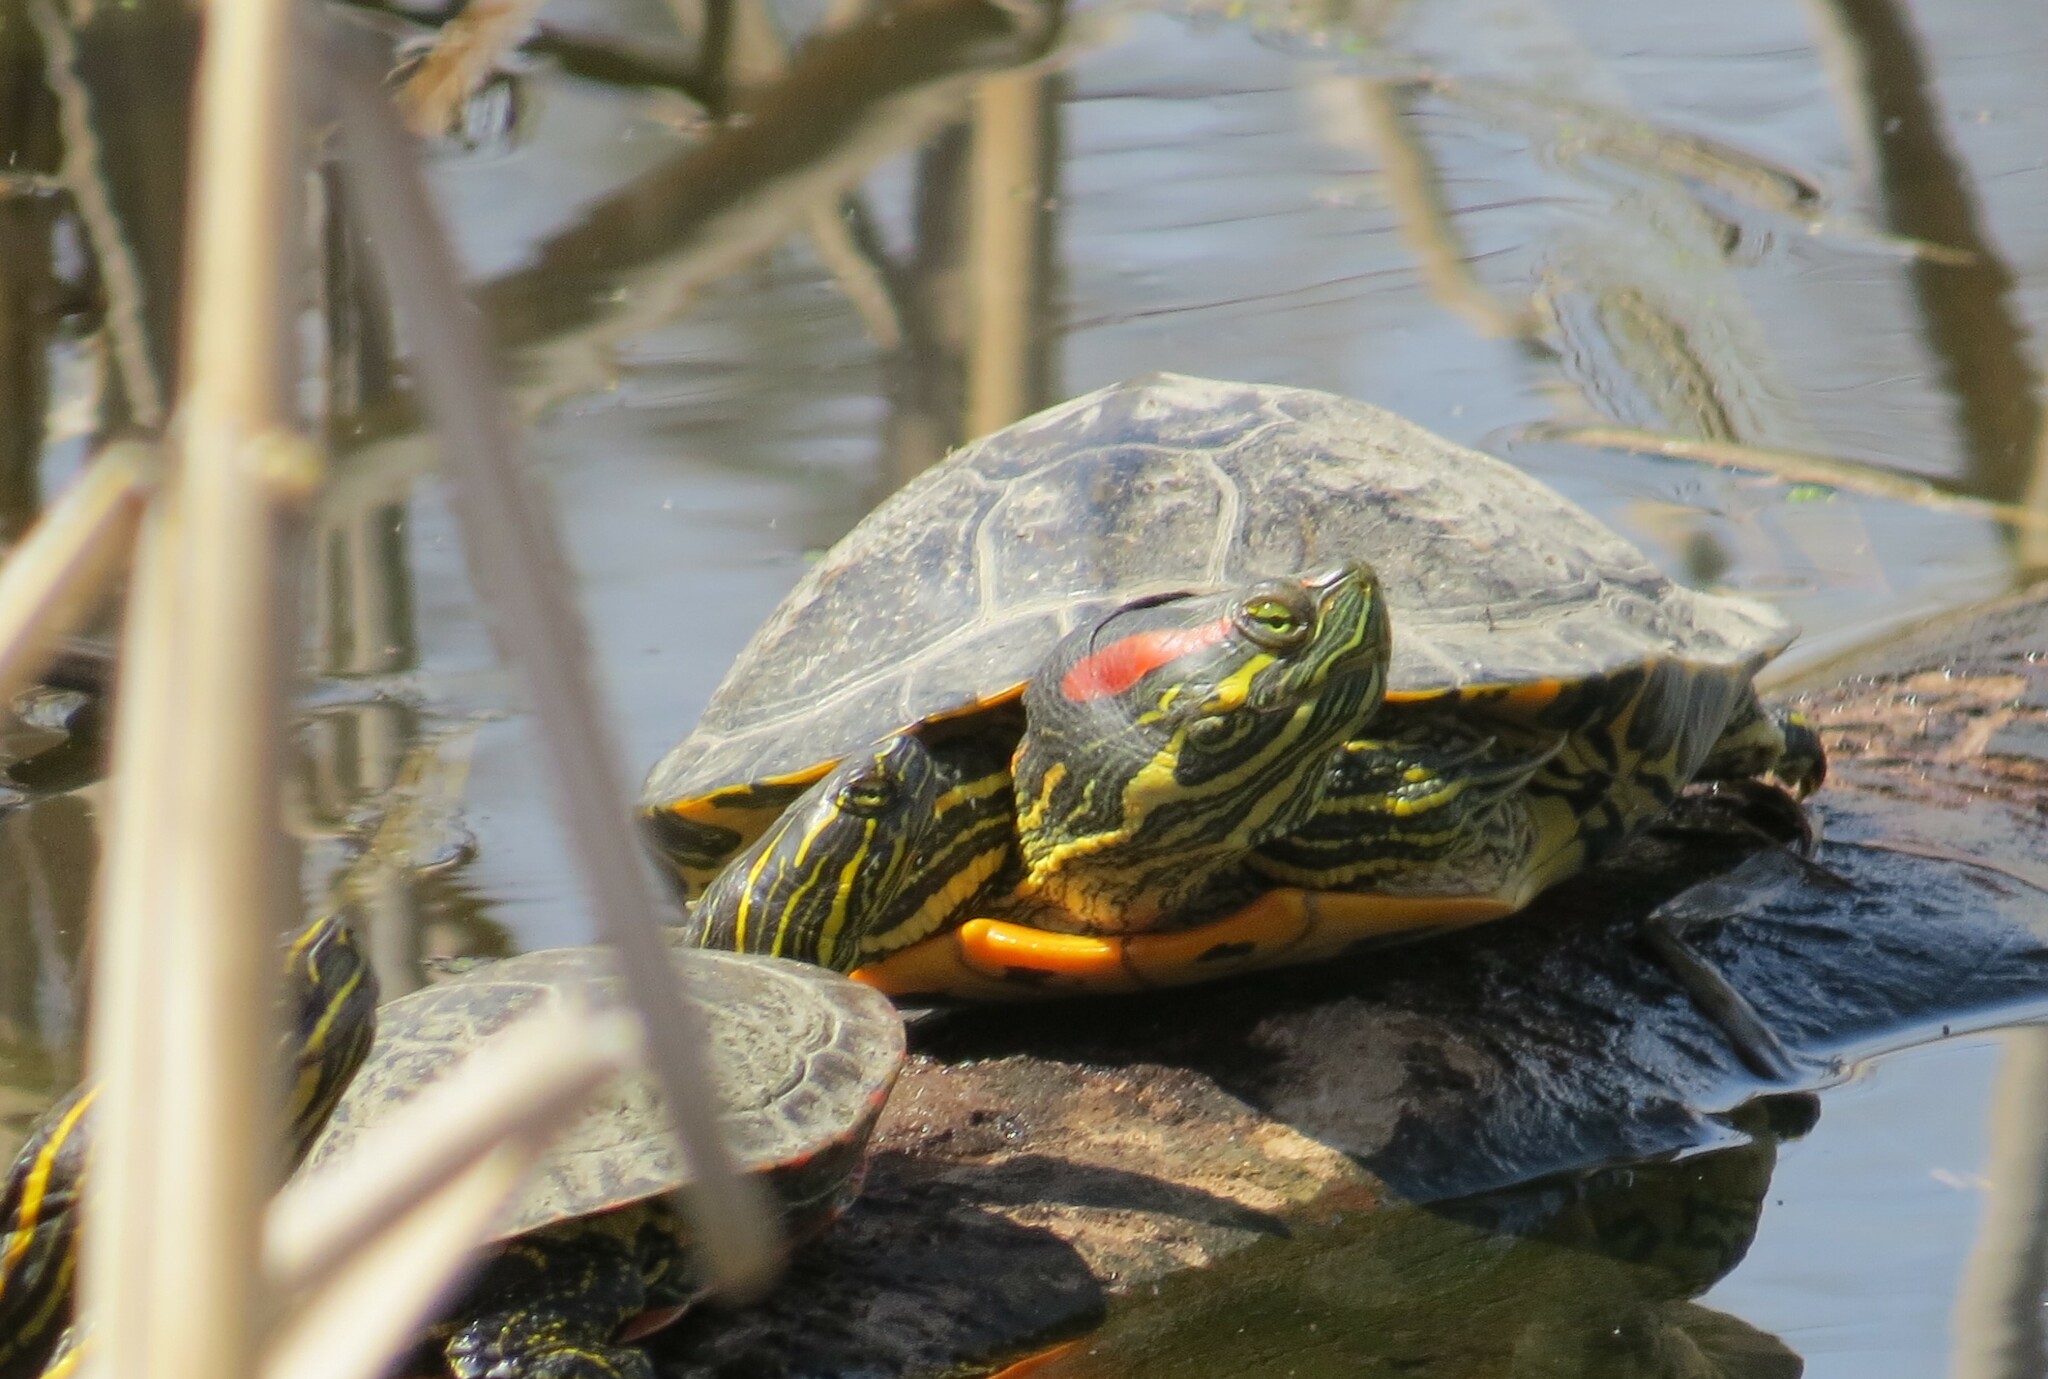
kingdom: Animalia
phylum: Chordata
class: Testudines
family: Emydidae
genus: Trachemys
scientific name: Trachemys scripta
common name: Slider
